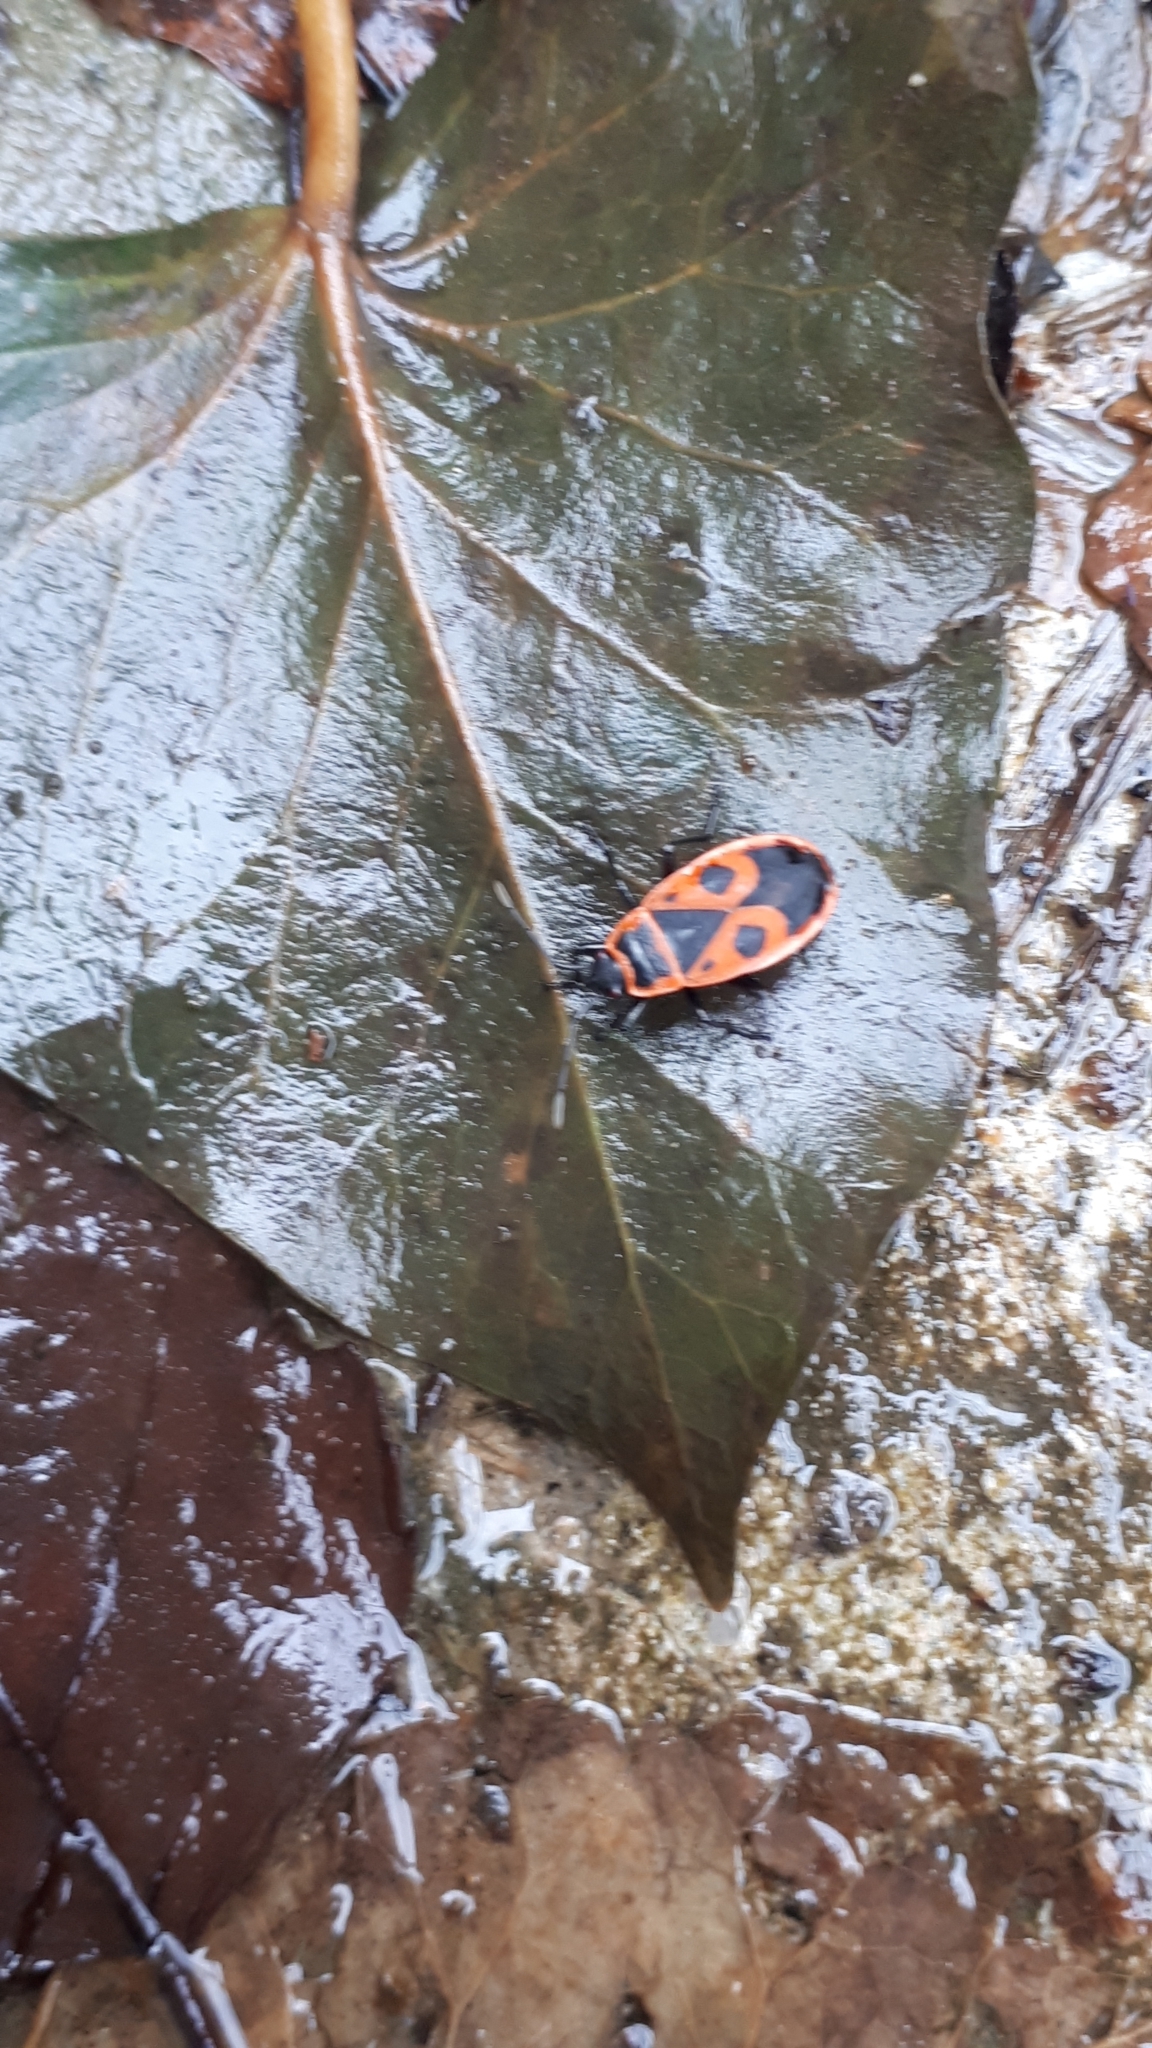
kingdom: Animalia
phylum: Arthropoda
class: Insecta
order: Hemiptera
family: Pyrrhocoridae
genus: Pyrrhocoris
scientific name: Pyrrhocoris apterus
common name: Firebug
